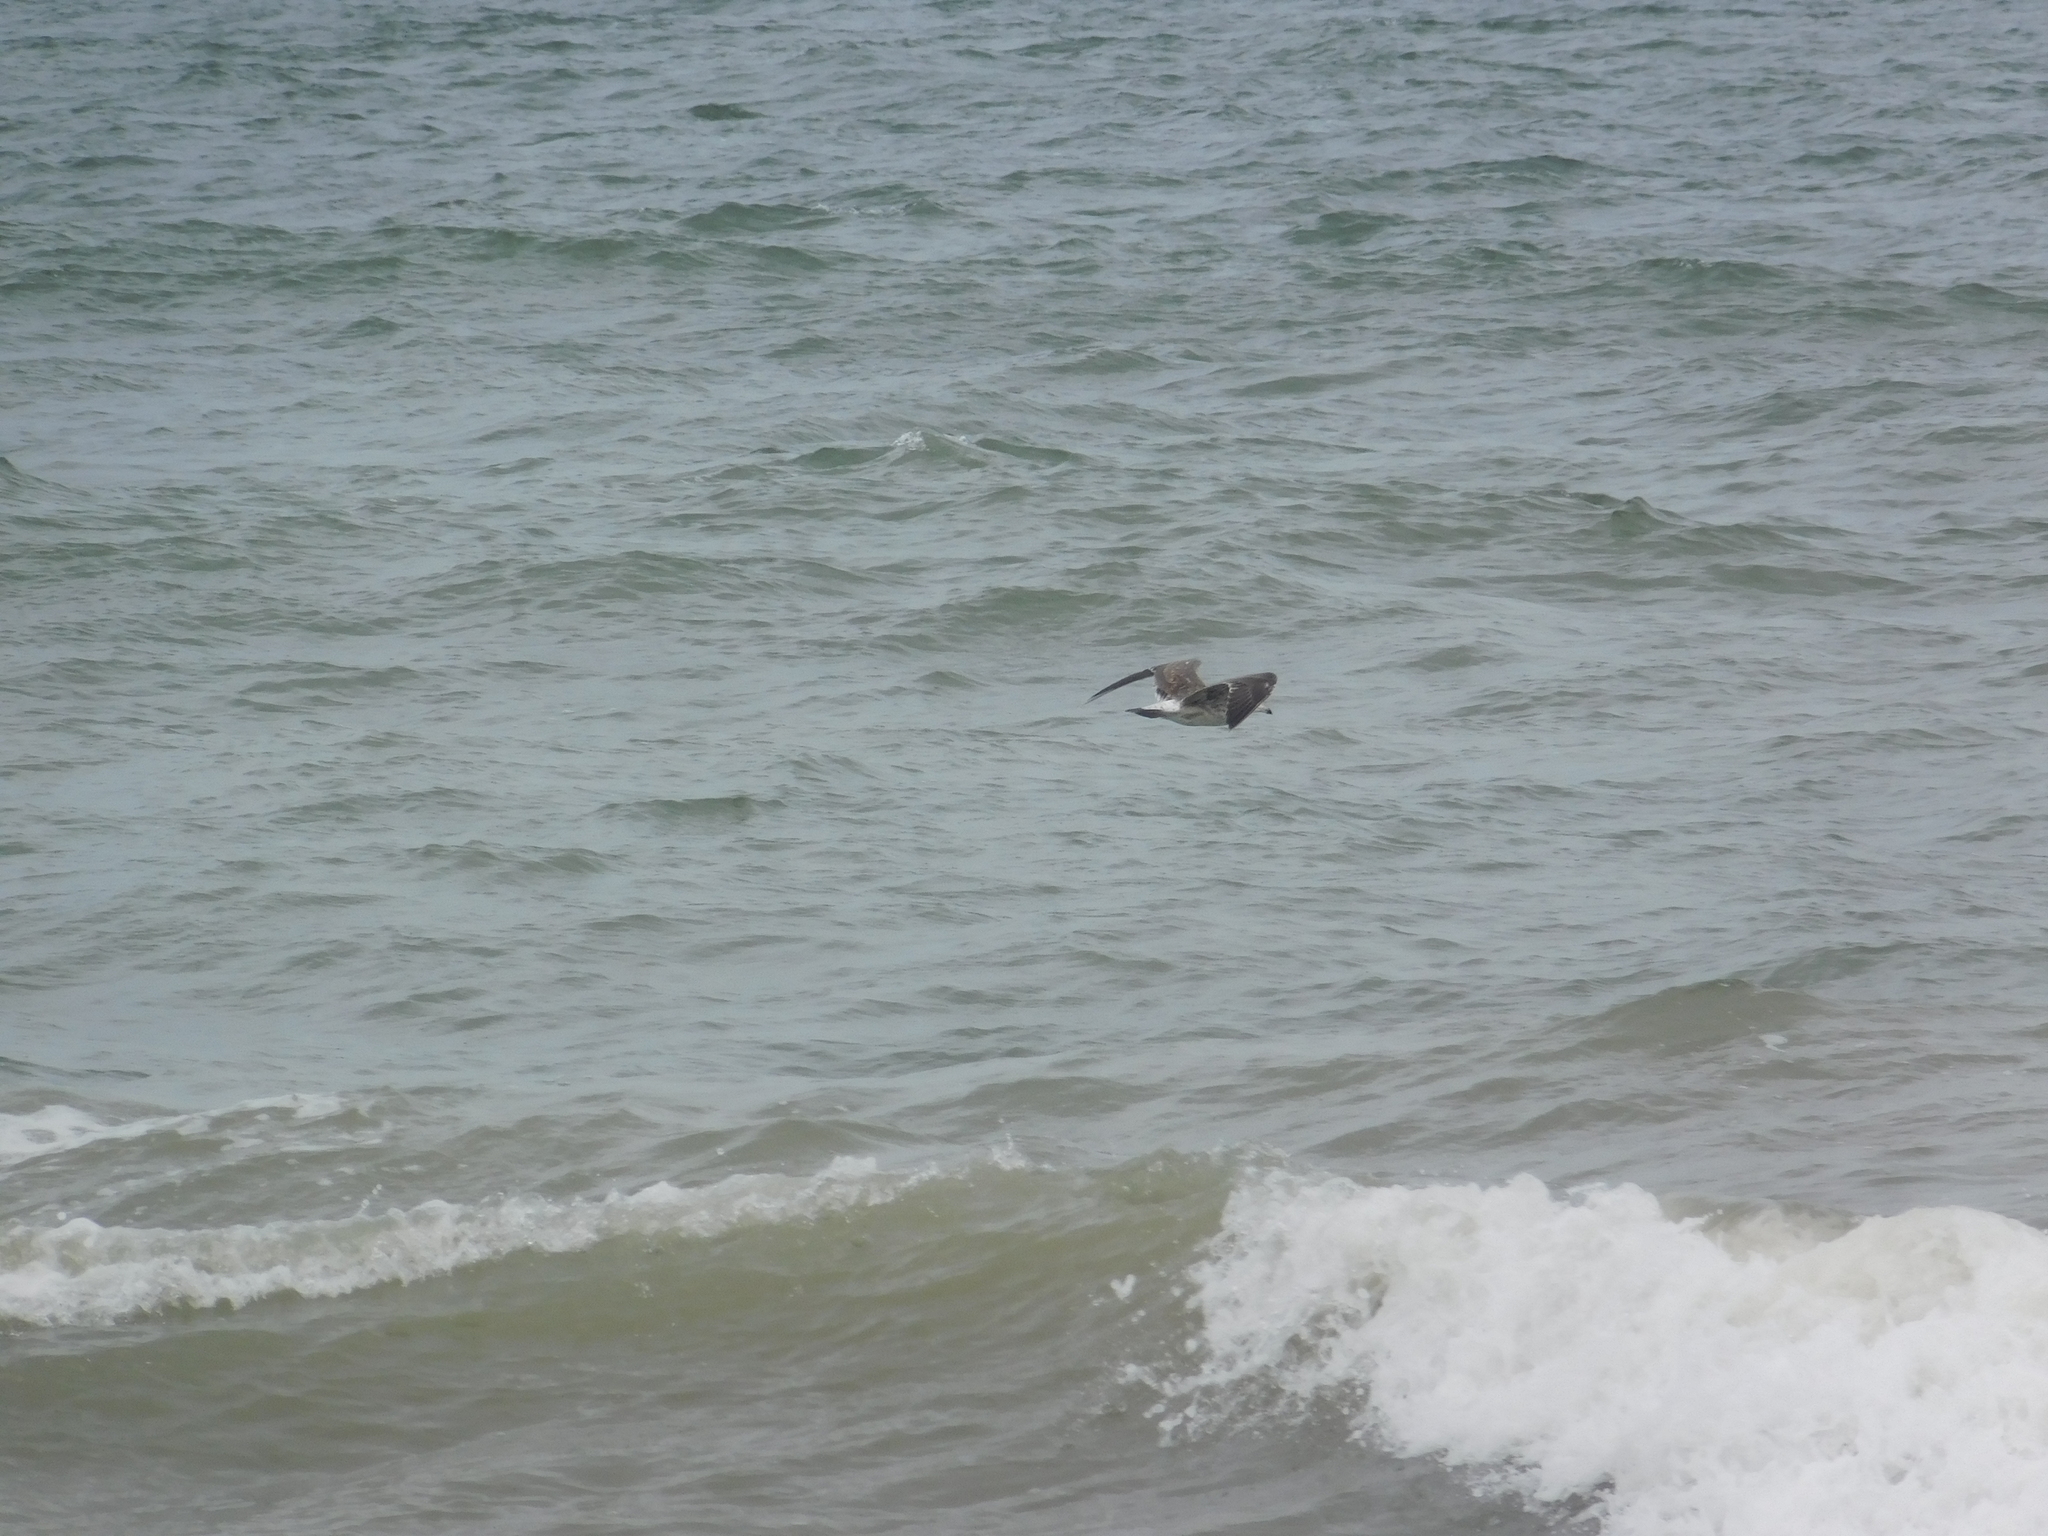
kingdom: Animalia
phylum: Chordata
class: Aves
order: Charadriiformes
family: Laridae
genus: Larus
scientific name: Larus dominicanus
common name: Kelp gull
